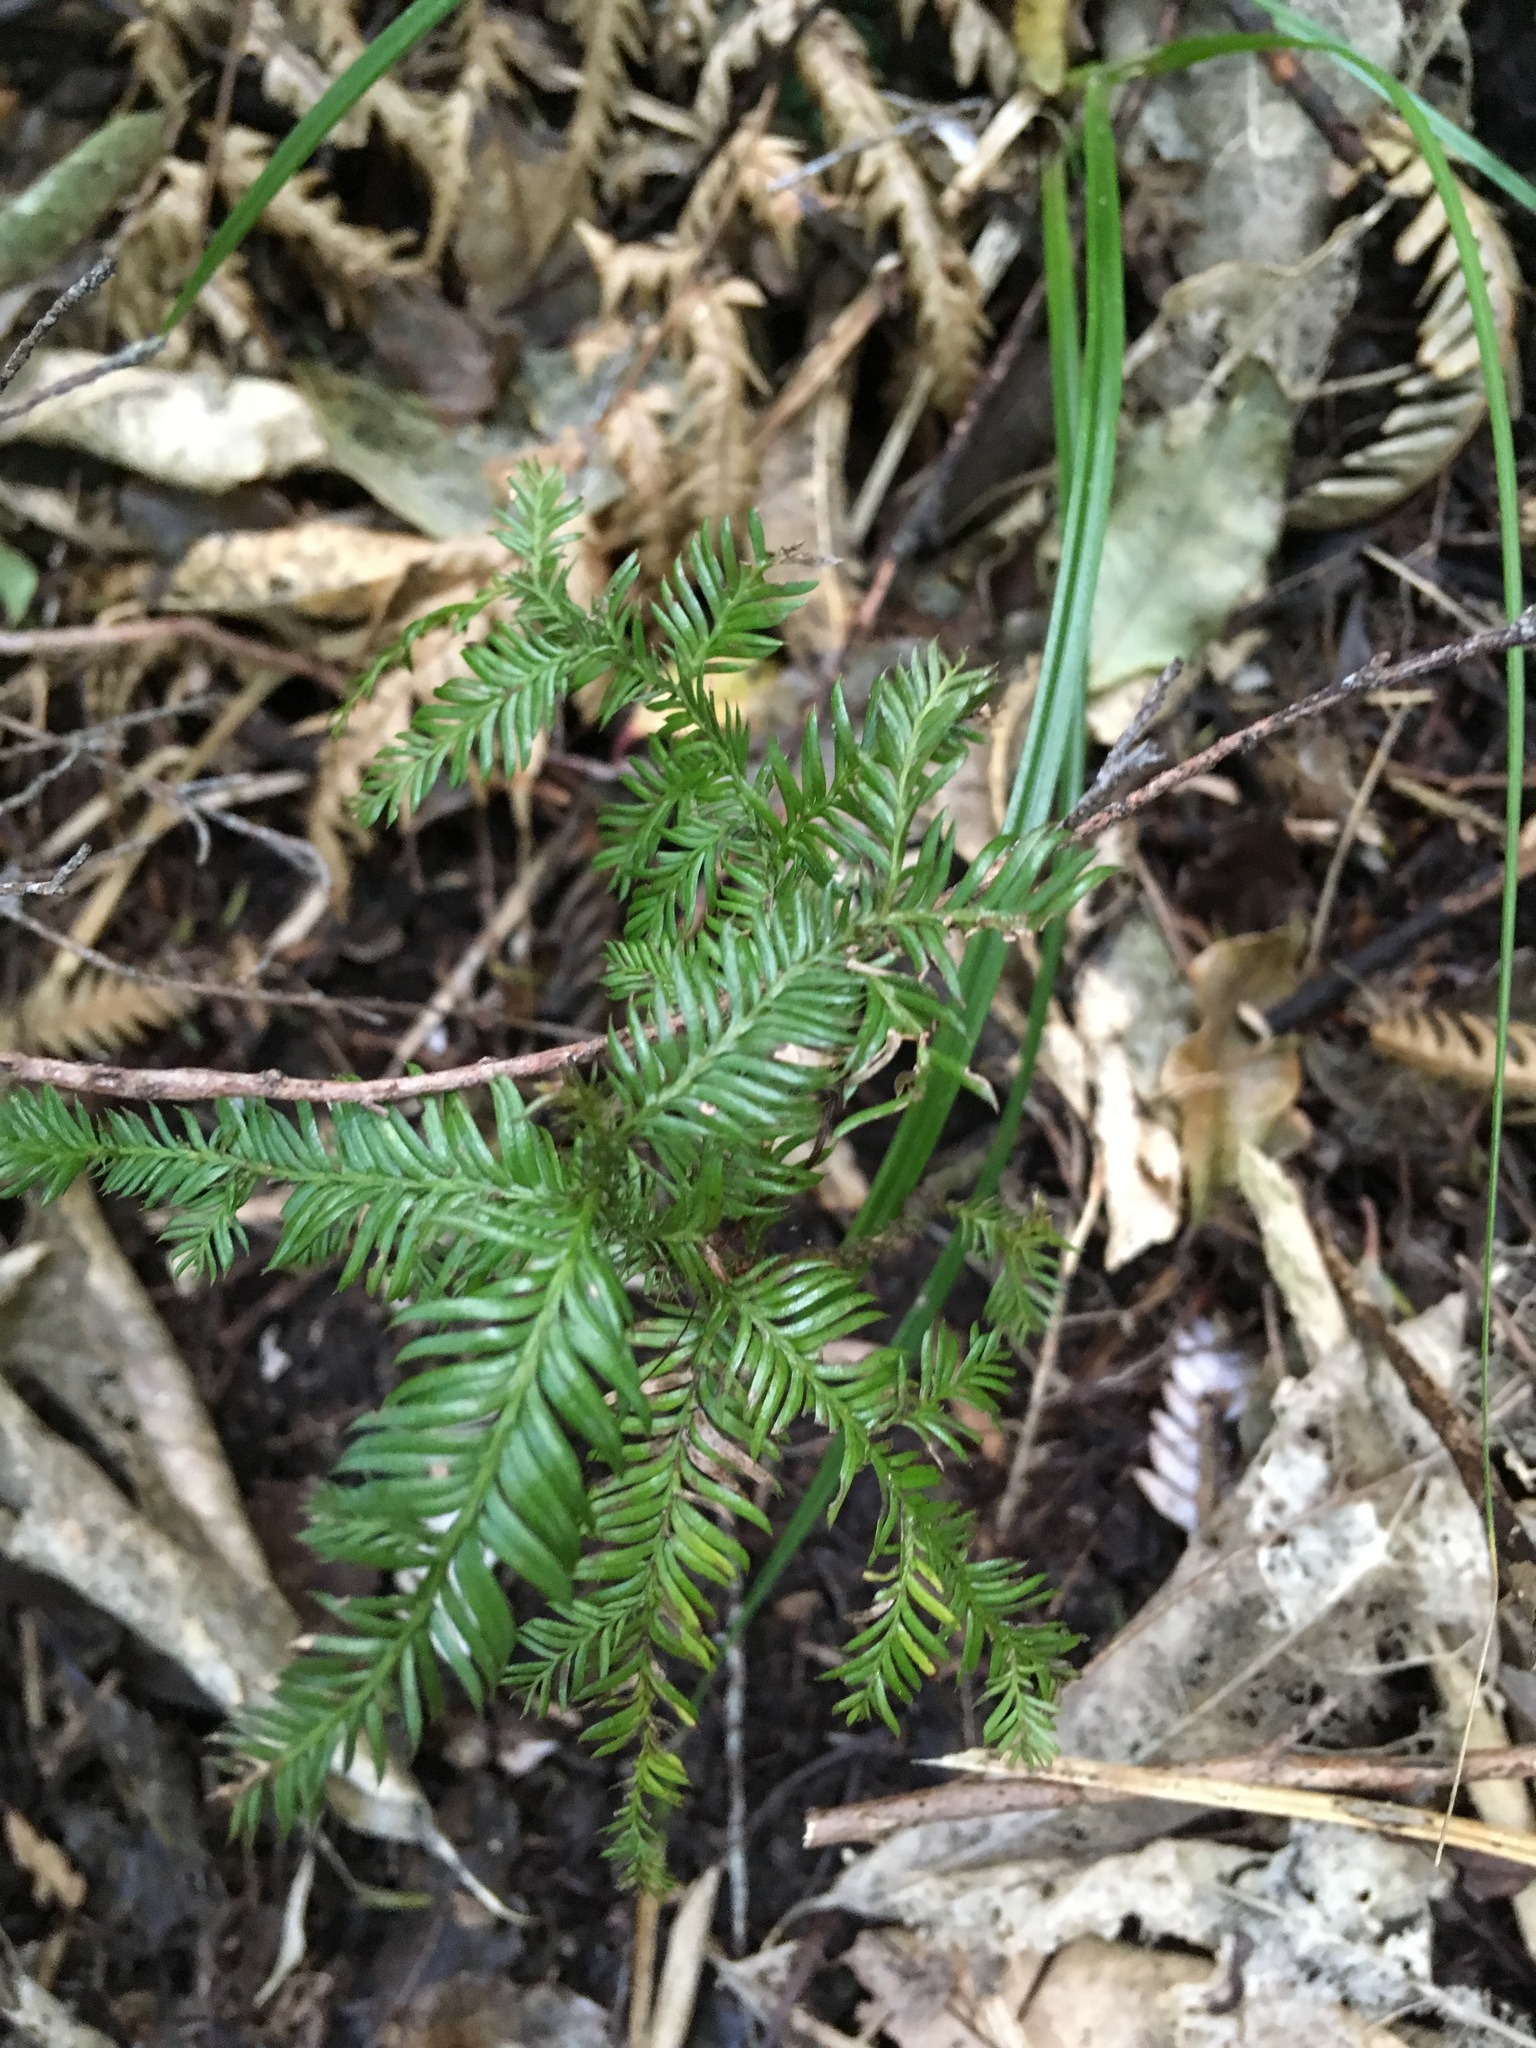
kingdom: Plantae
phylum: Tracheophyta
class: Pinopsida
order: Pinales
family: Podocarpaceae
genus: Dacrycarpus
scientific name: Dacrycarpus dacrydioides
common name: White pine
